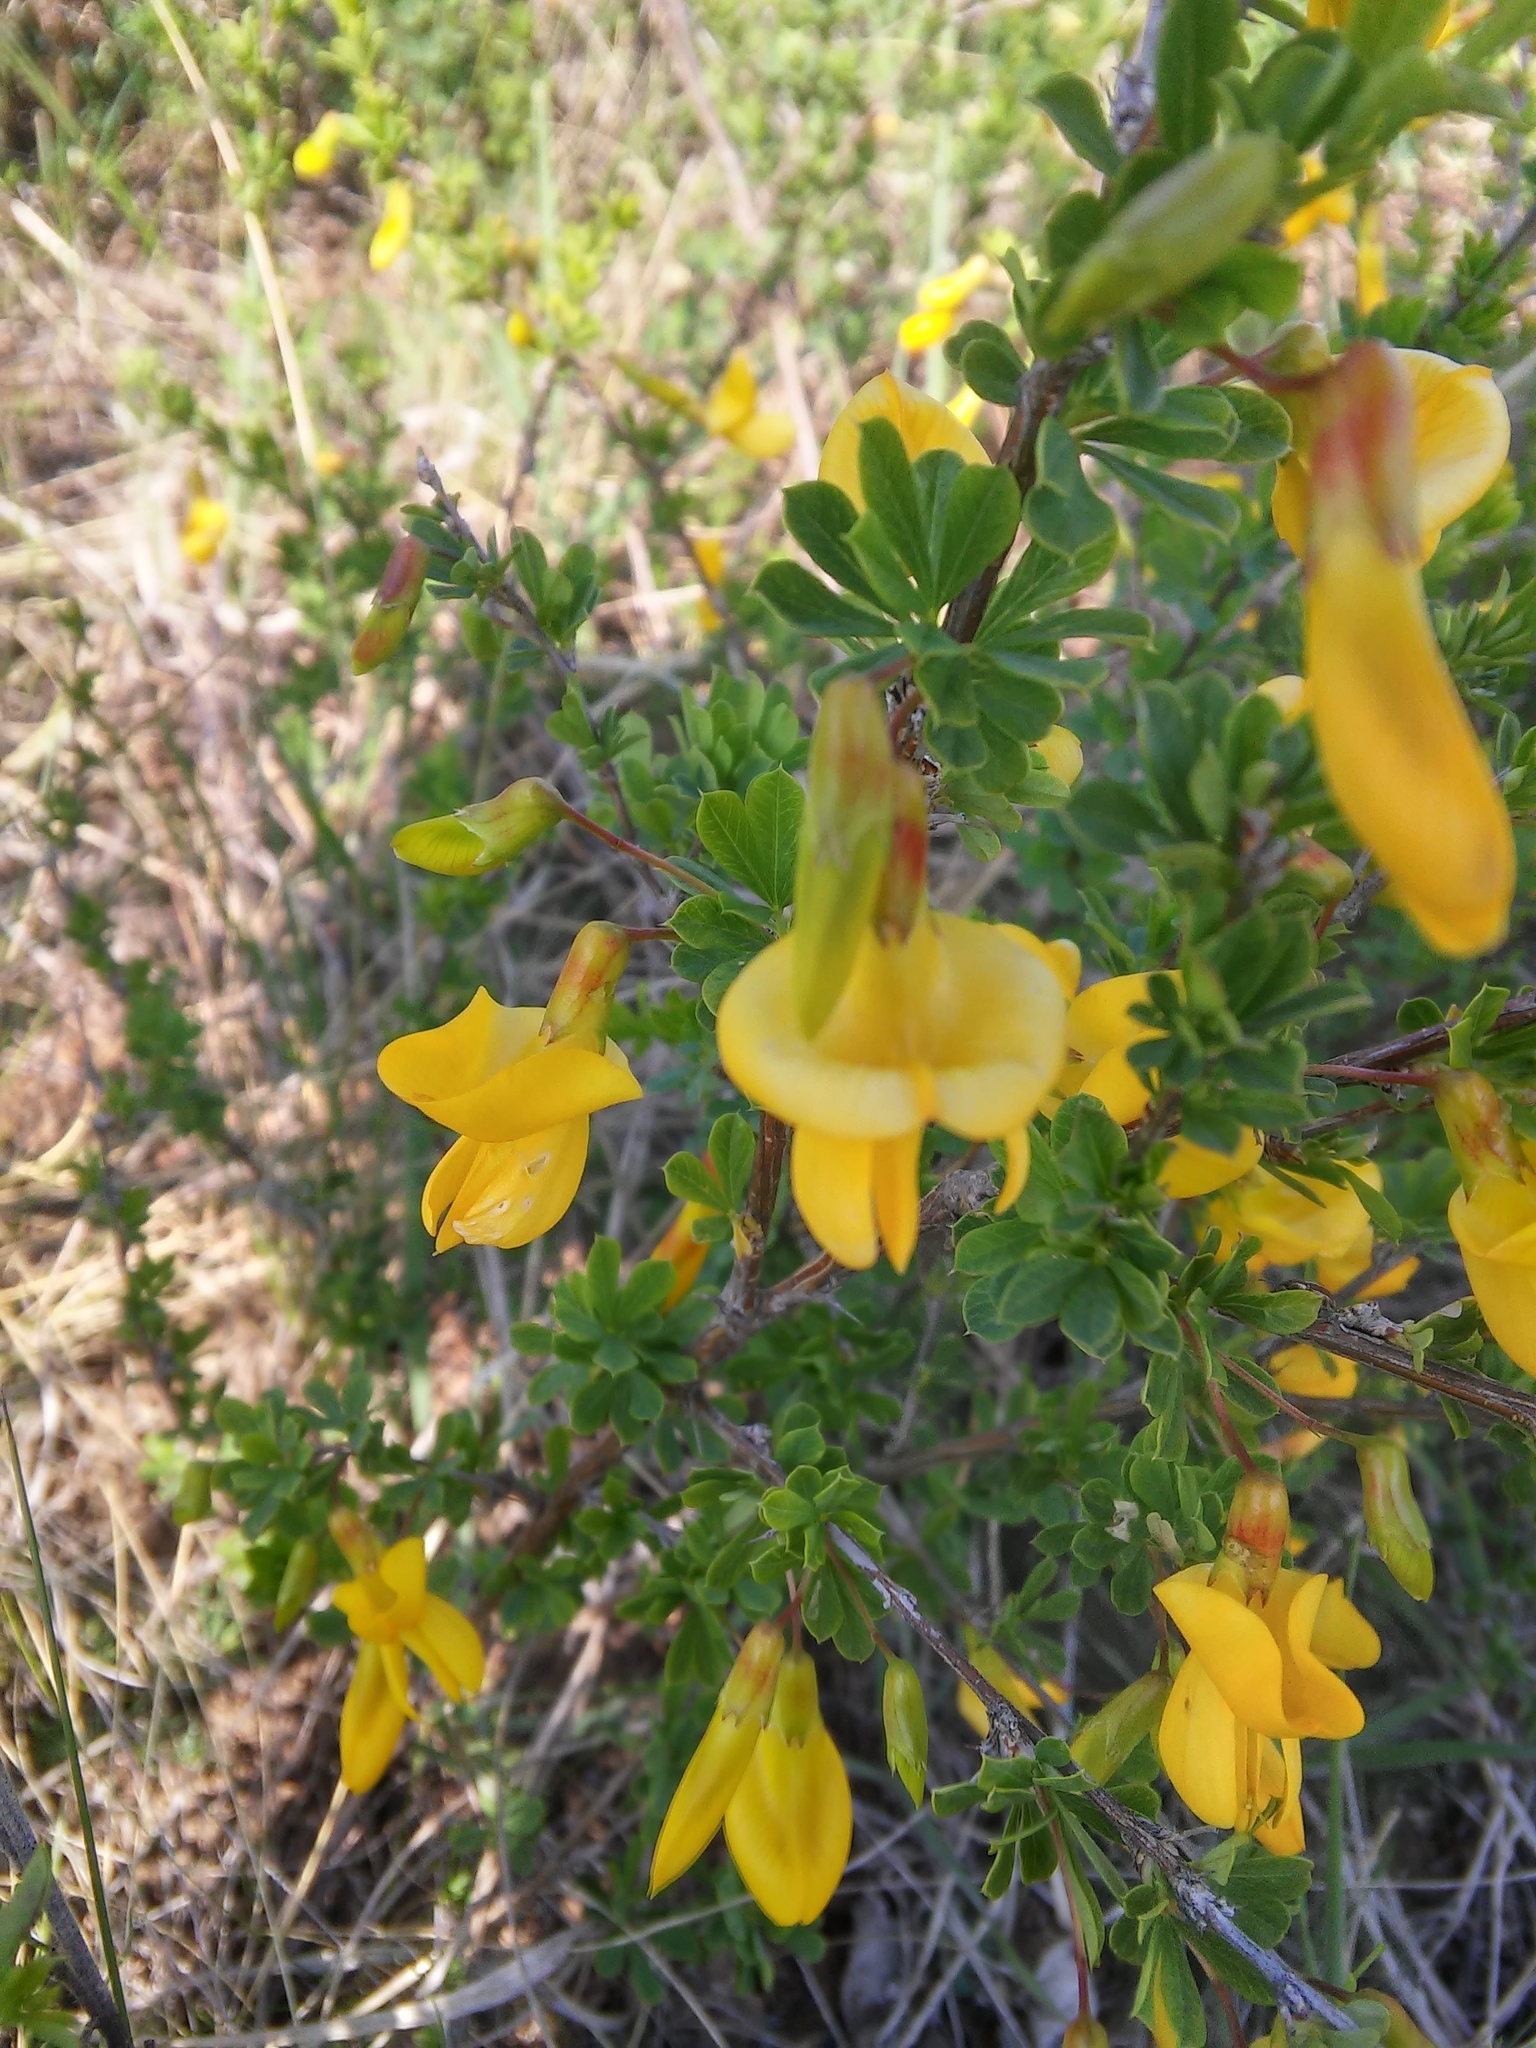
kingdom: Plantae
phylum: Tracheophyta
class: Magnoliopsida
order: Fabales
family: Fabaceae
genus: Caragana
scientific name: Caragana frutex
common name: Russian peashrub
